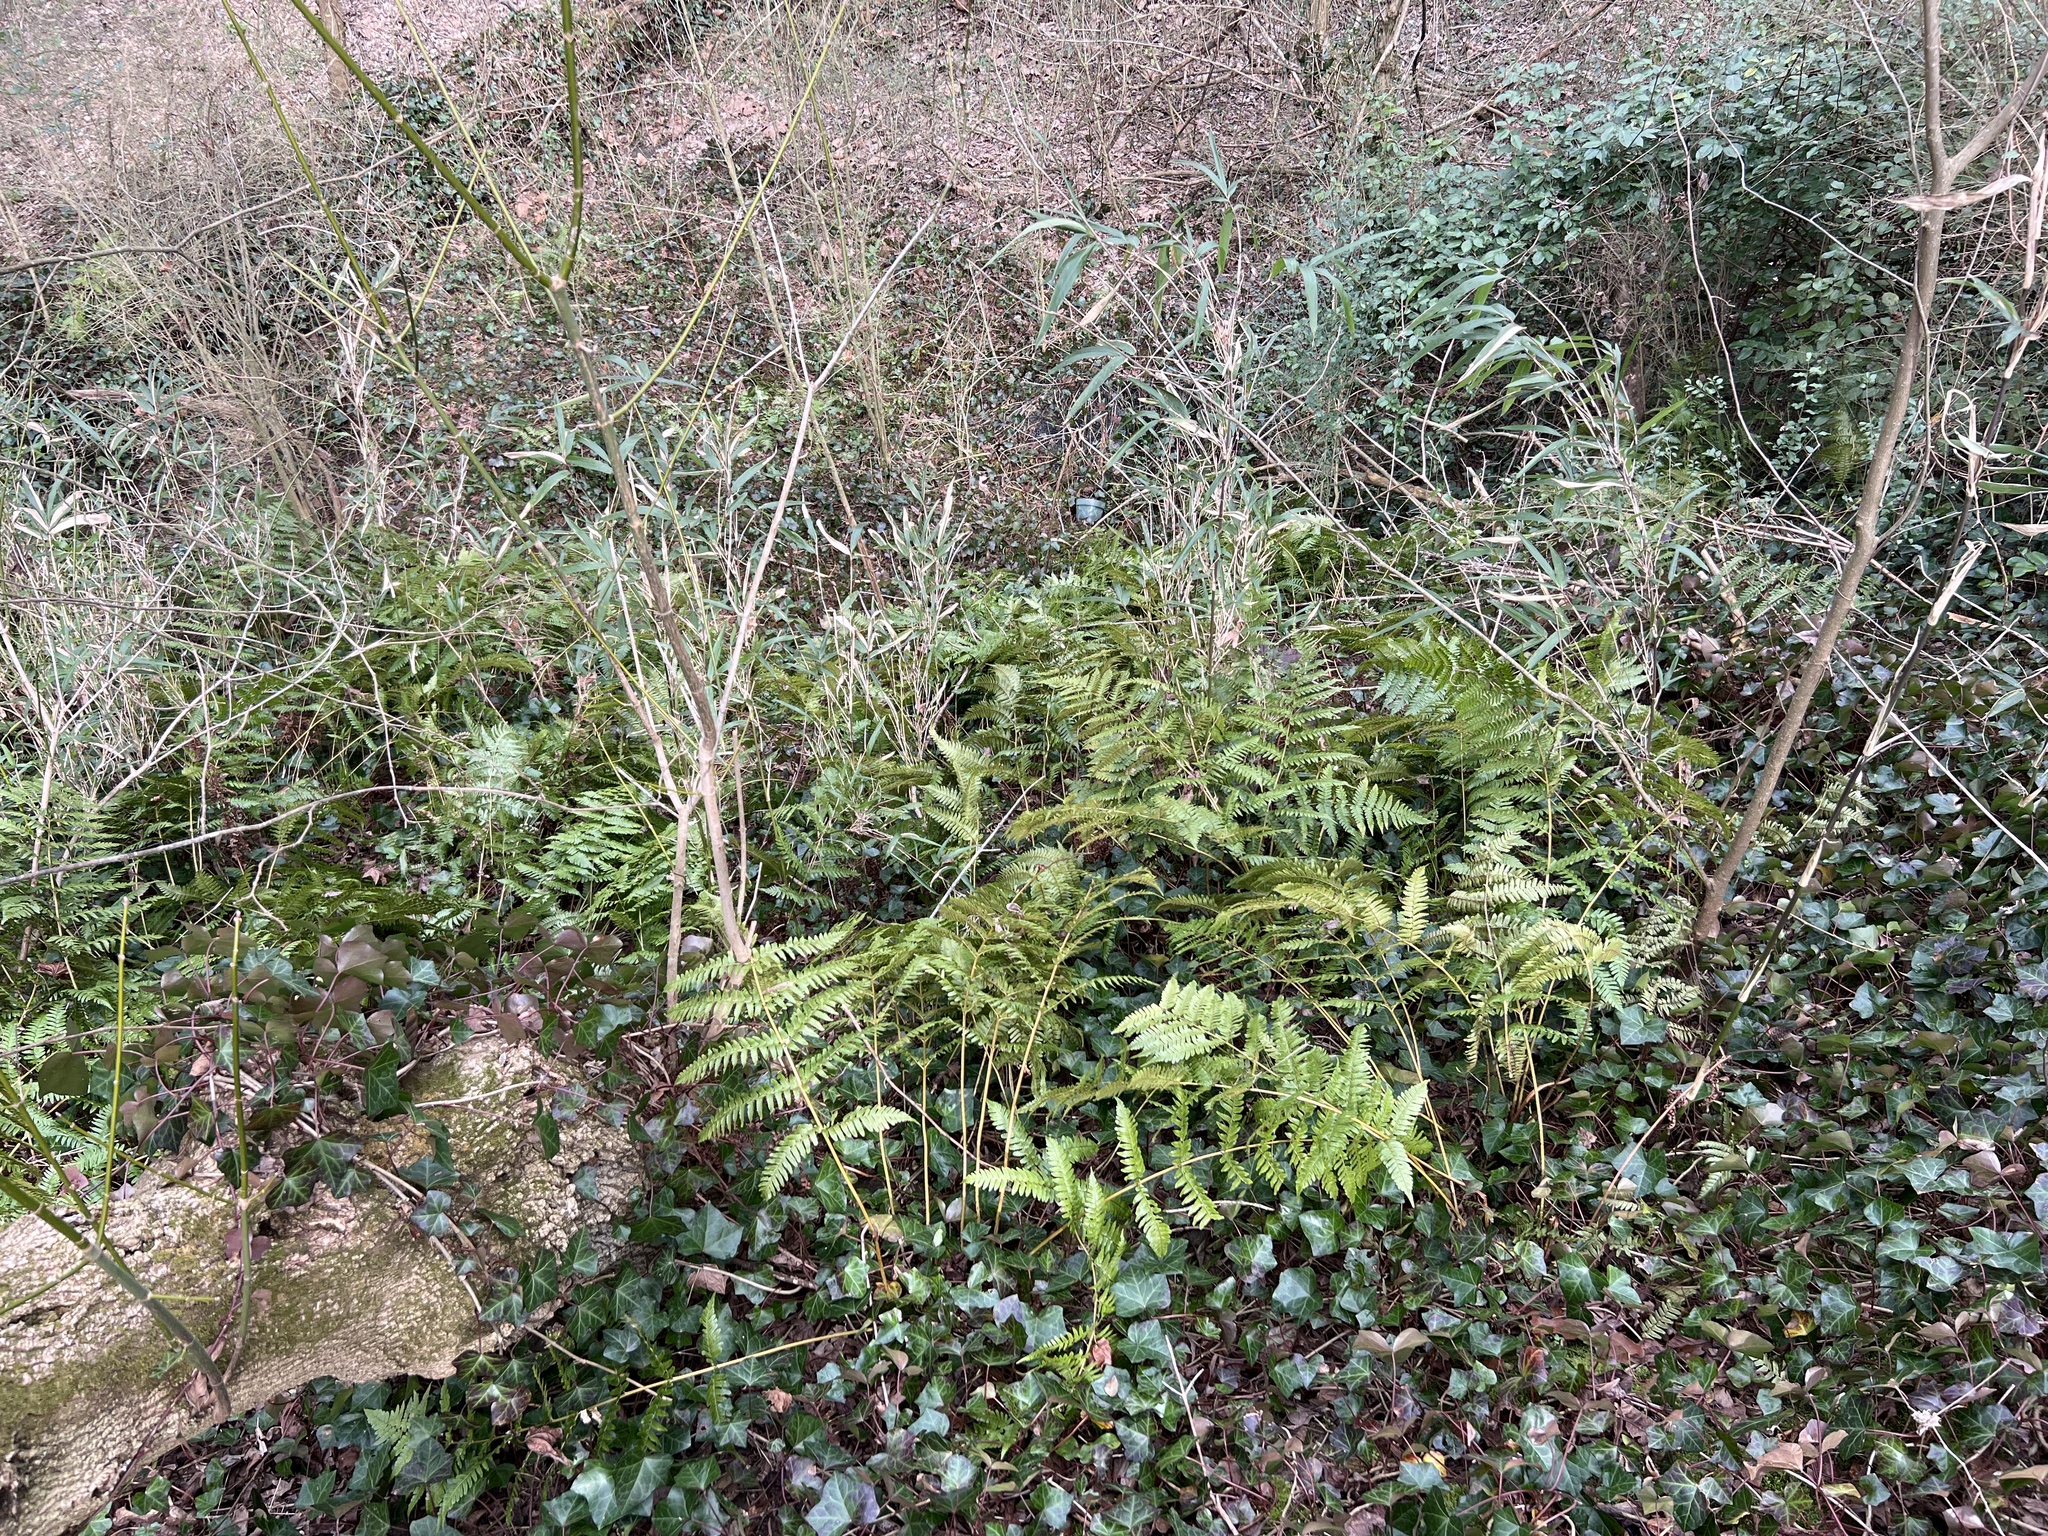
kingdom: Plantae
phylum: Tracheophyta
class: Polypodiopsida
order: Polypodiales
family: Dryopteridaceae
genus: Dryopteris
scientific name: Dryopteris erythrosora
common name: Autumn fern
